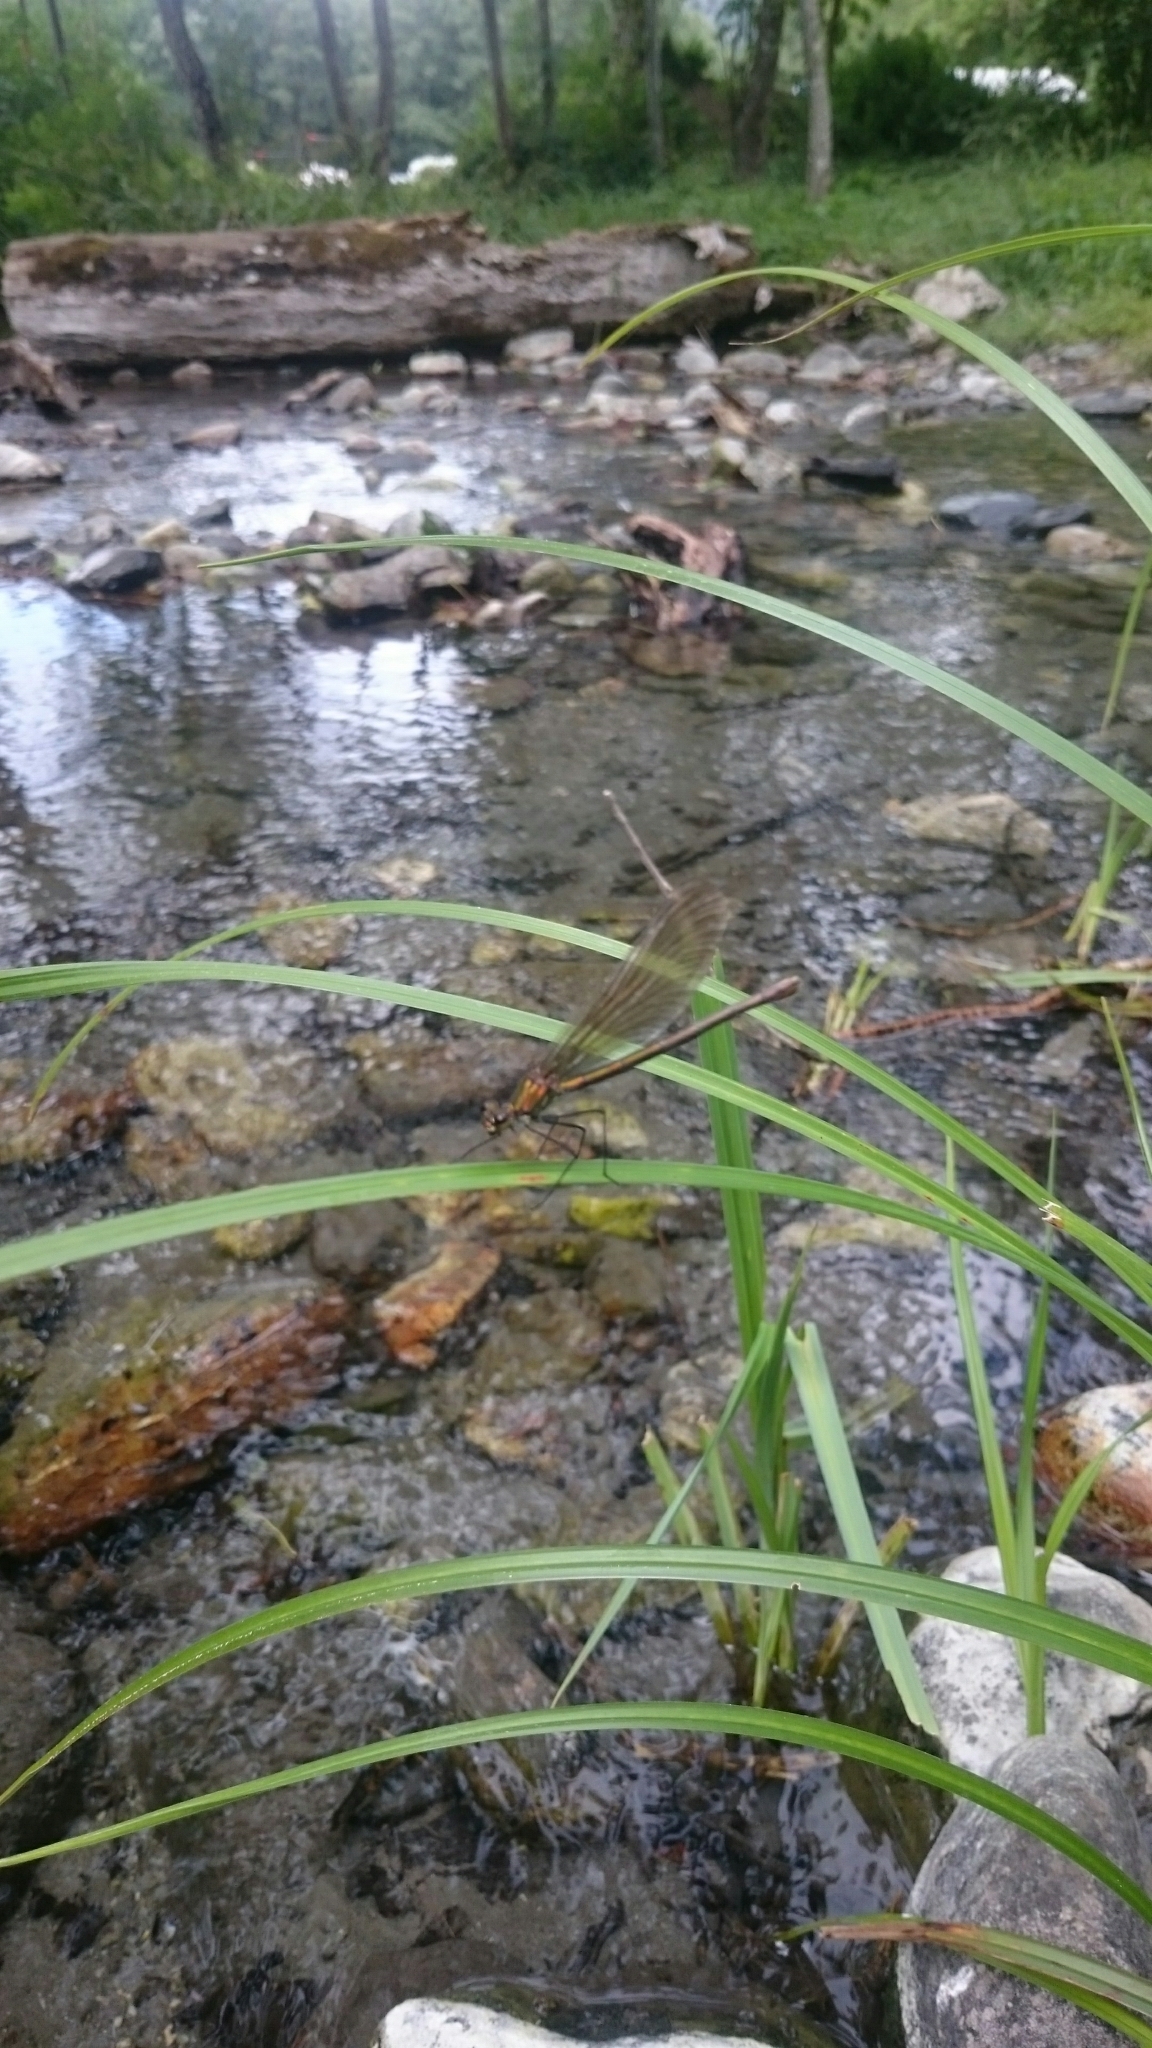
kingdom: Animalia
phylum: Arthropoda
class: Insecta
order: Odonata
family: Calopterygidae
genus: Calopteryx
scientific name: Calopteryx virgo
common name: Beautiful demoiselle
